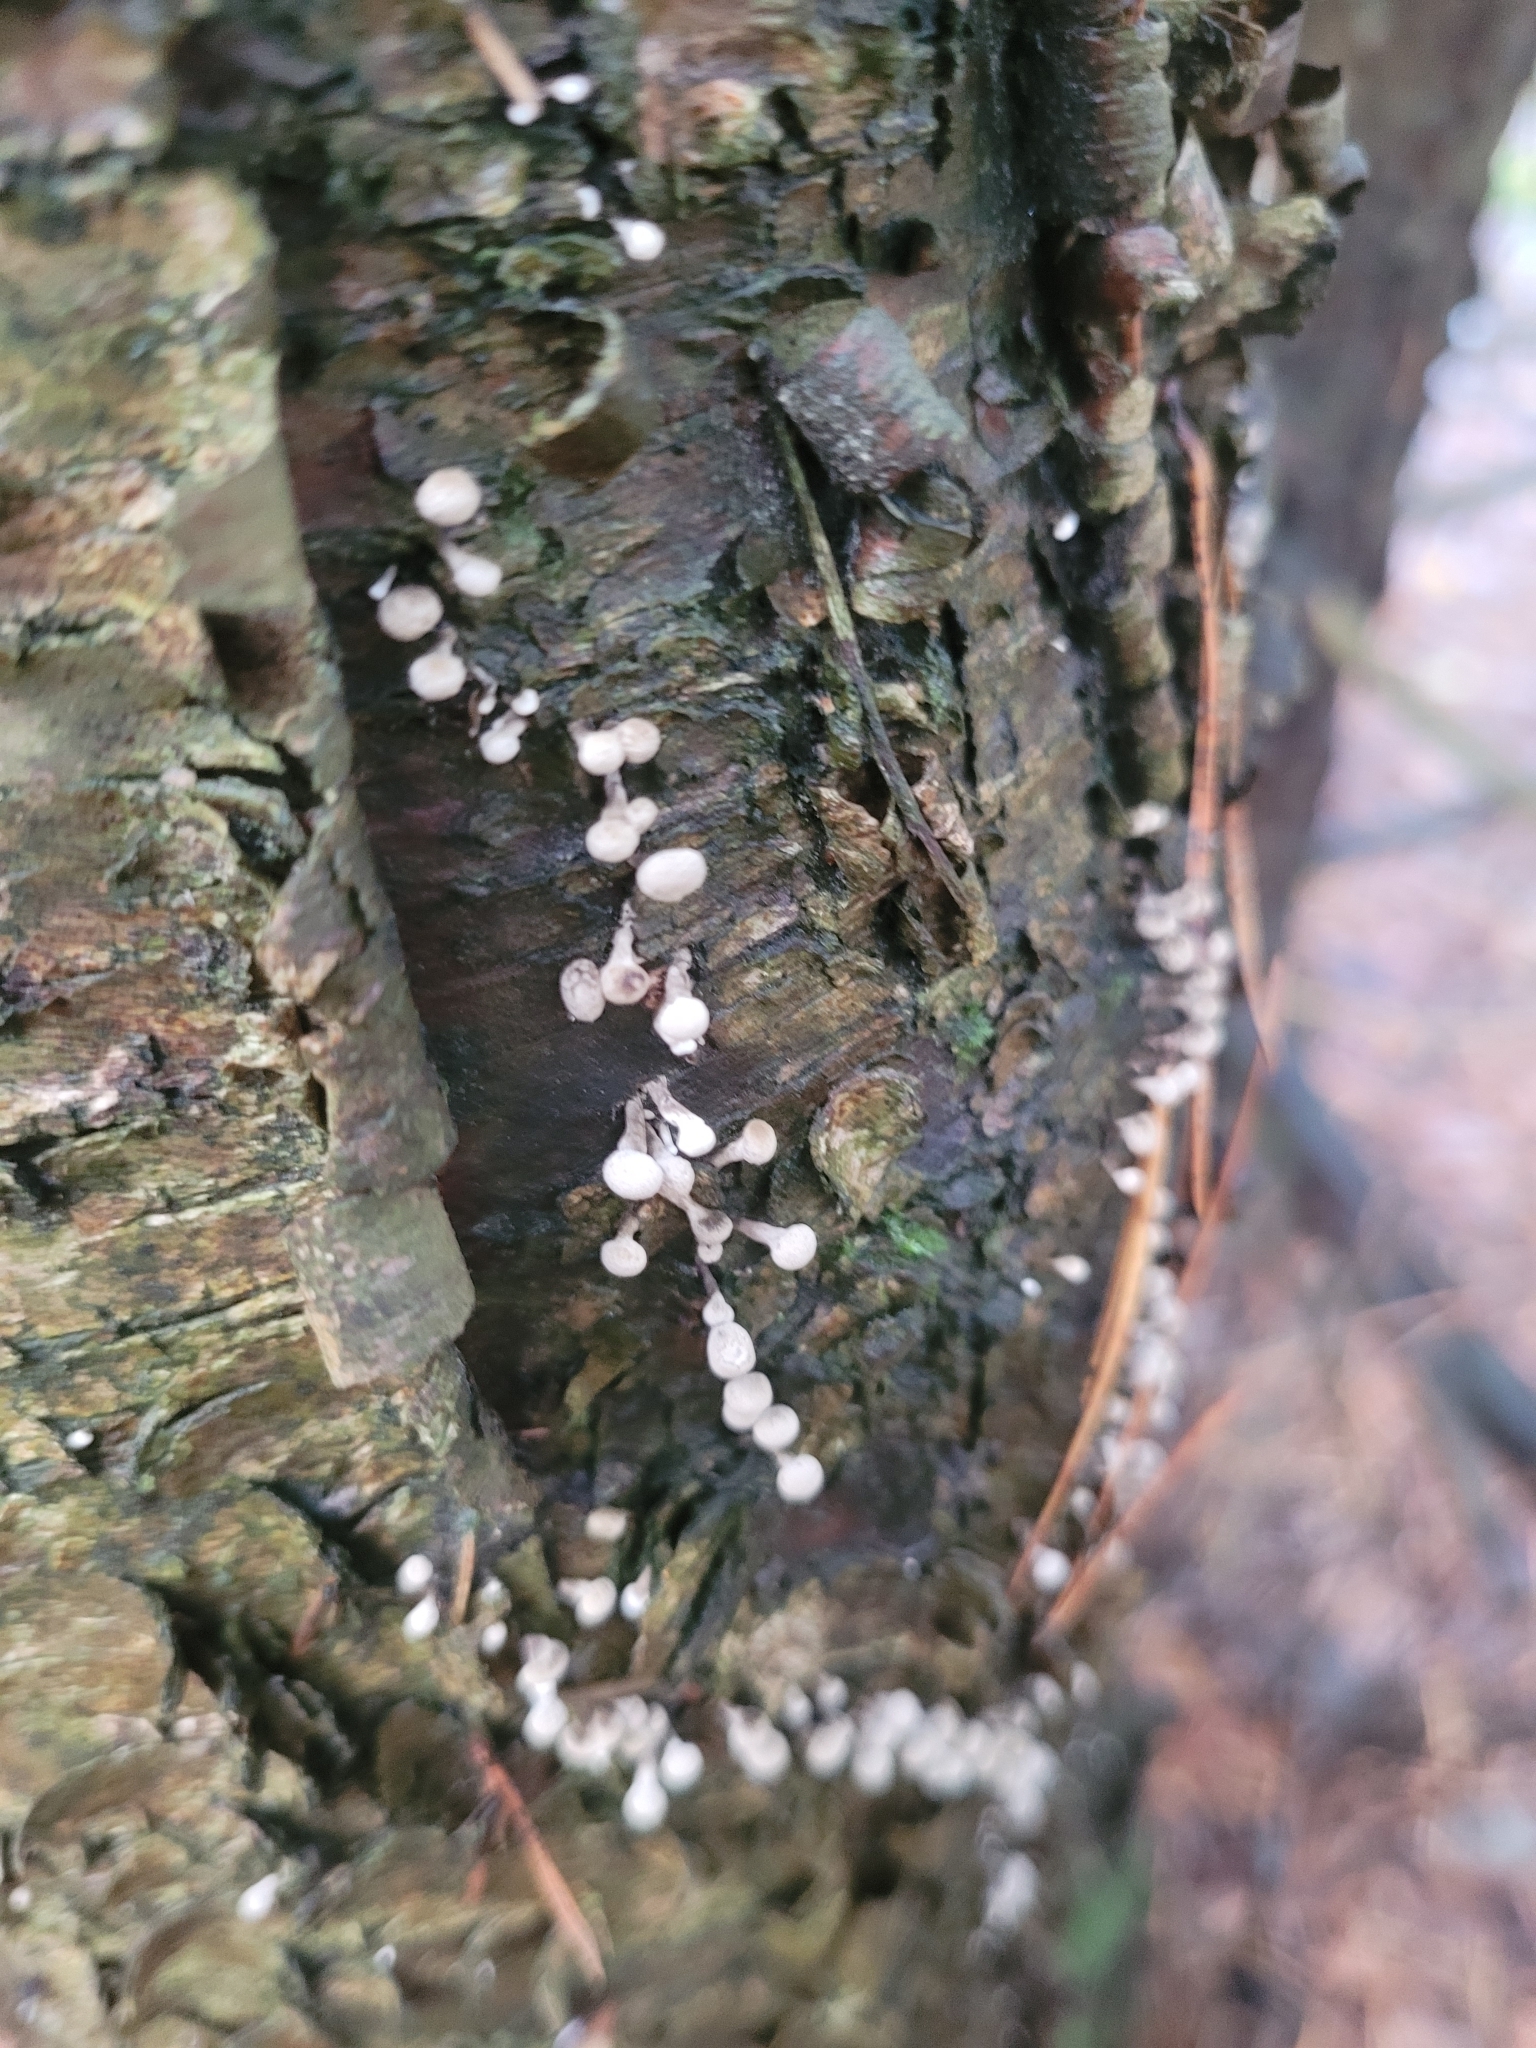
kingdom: Fungi
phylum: Basidiomycota
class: Atractiellomycetes
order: Atractiellales
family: Phleogenaceae
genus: Phleogena
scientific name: Phleogena faginea
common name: Fenugreek stalkball
